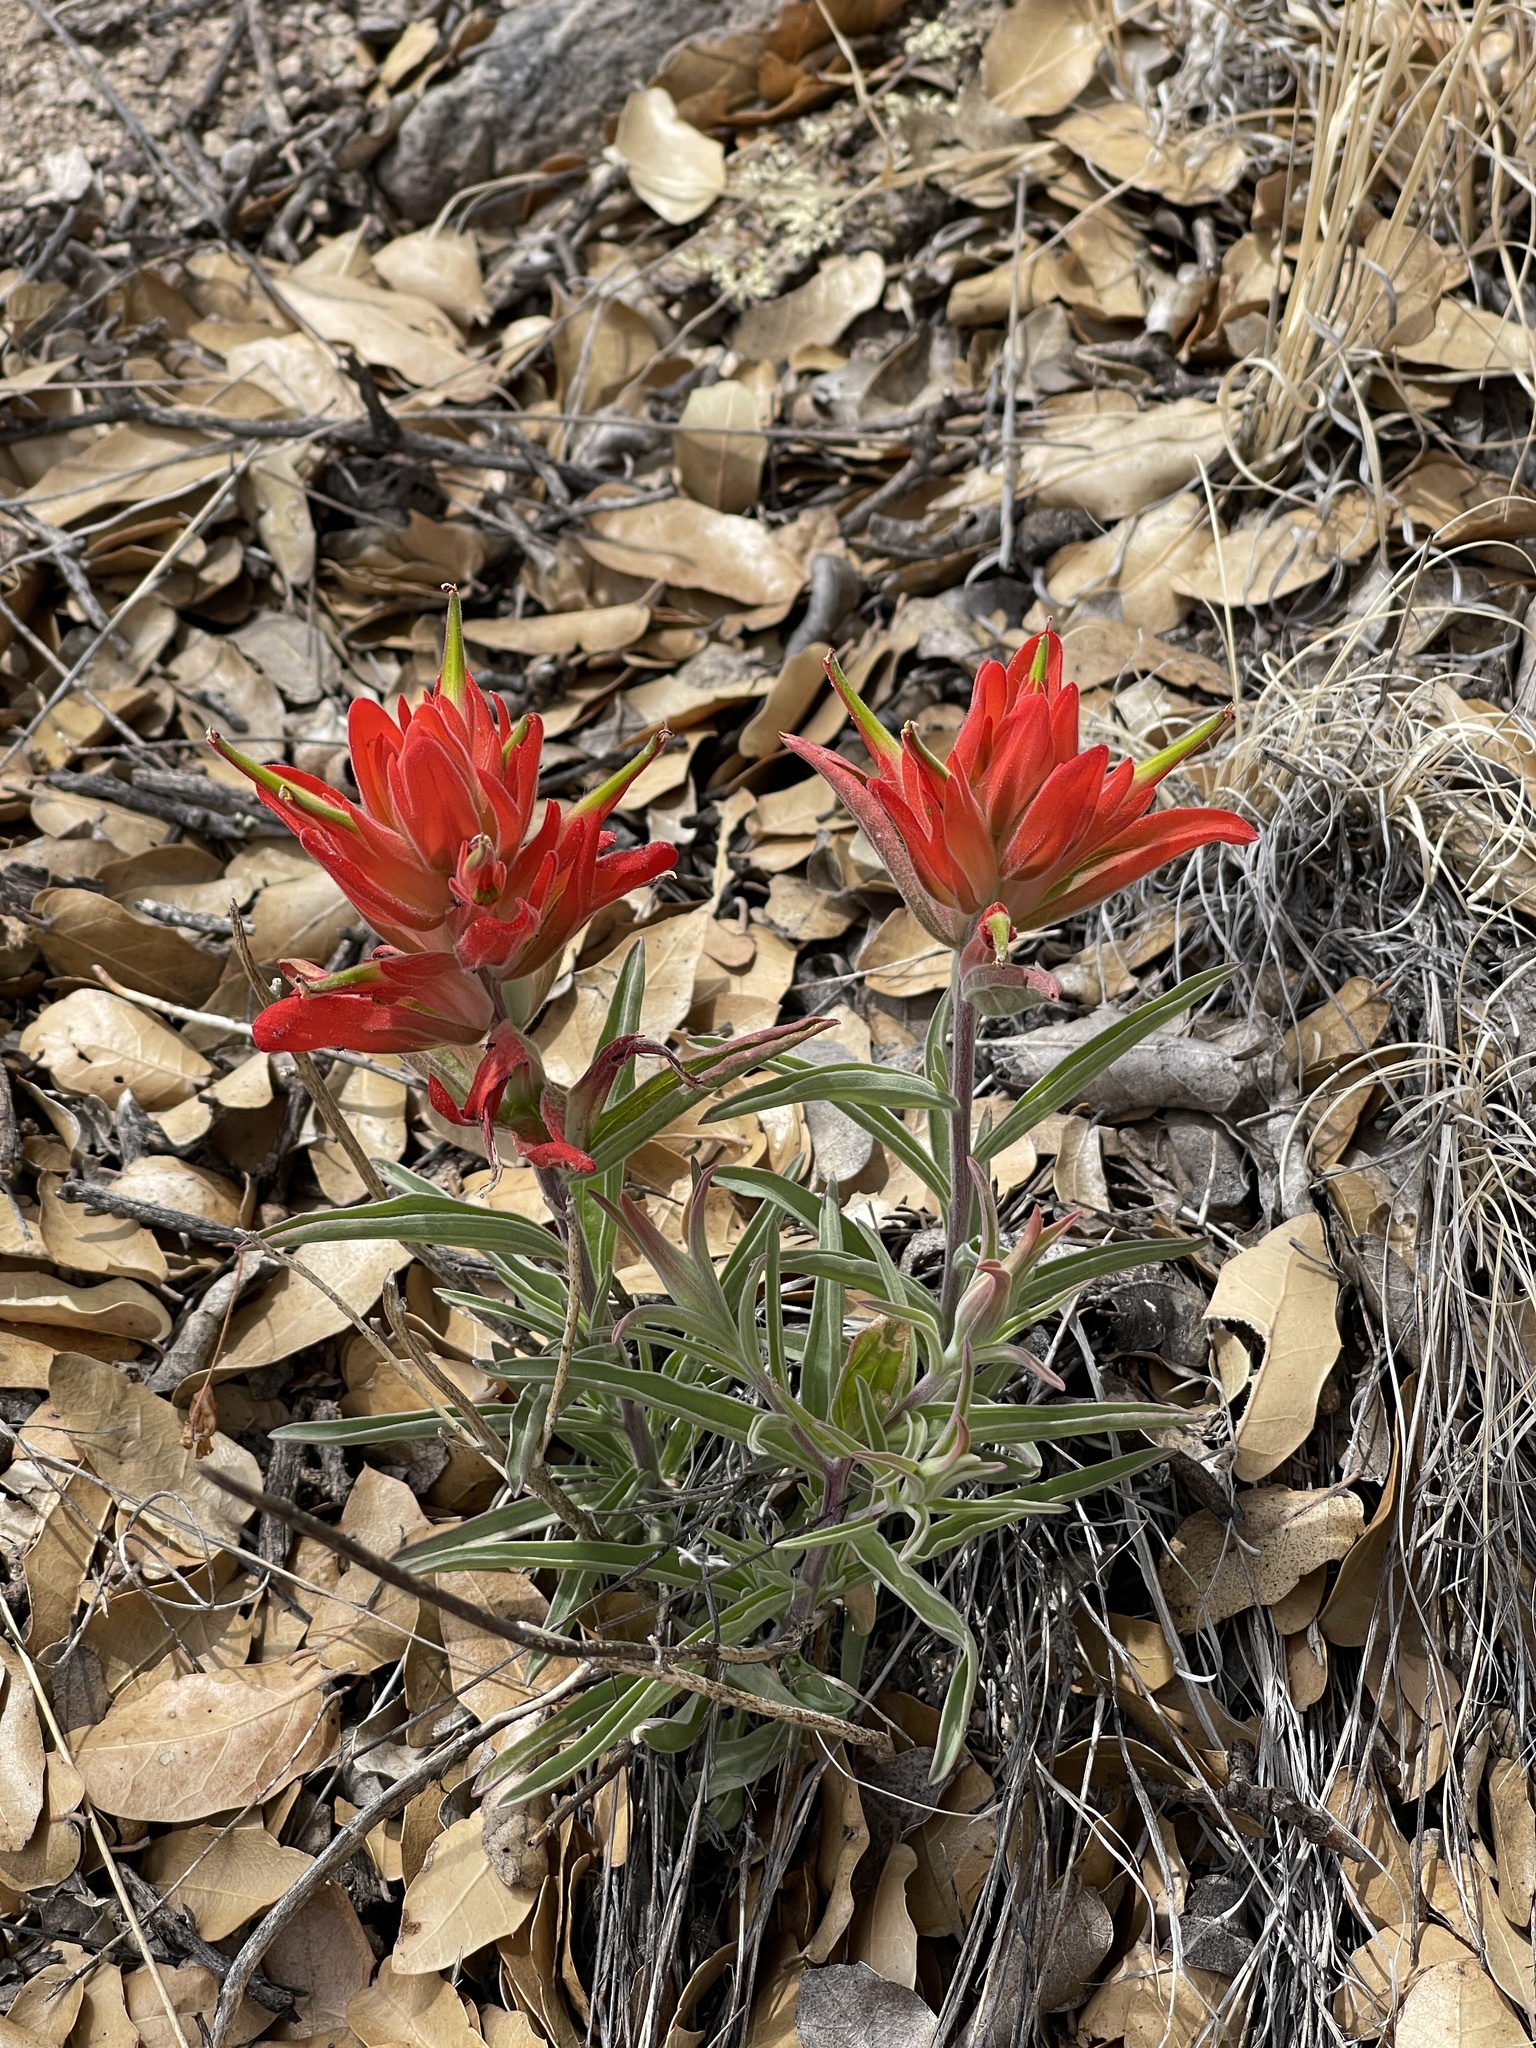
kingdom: Plantae
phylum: Tracheophyta
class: Magnoliopsida
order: Lamiales
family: Orobanchaceae
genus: Castilleja
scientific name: Castilleja integra
